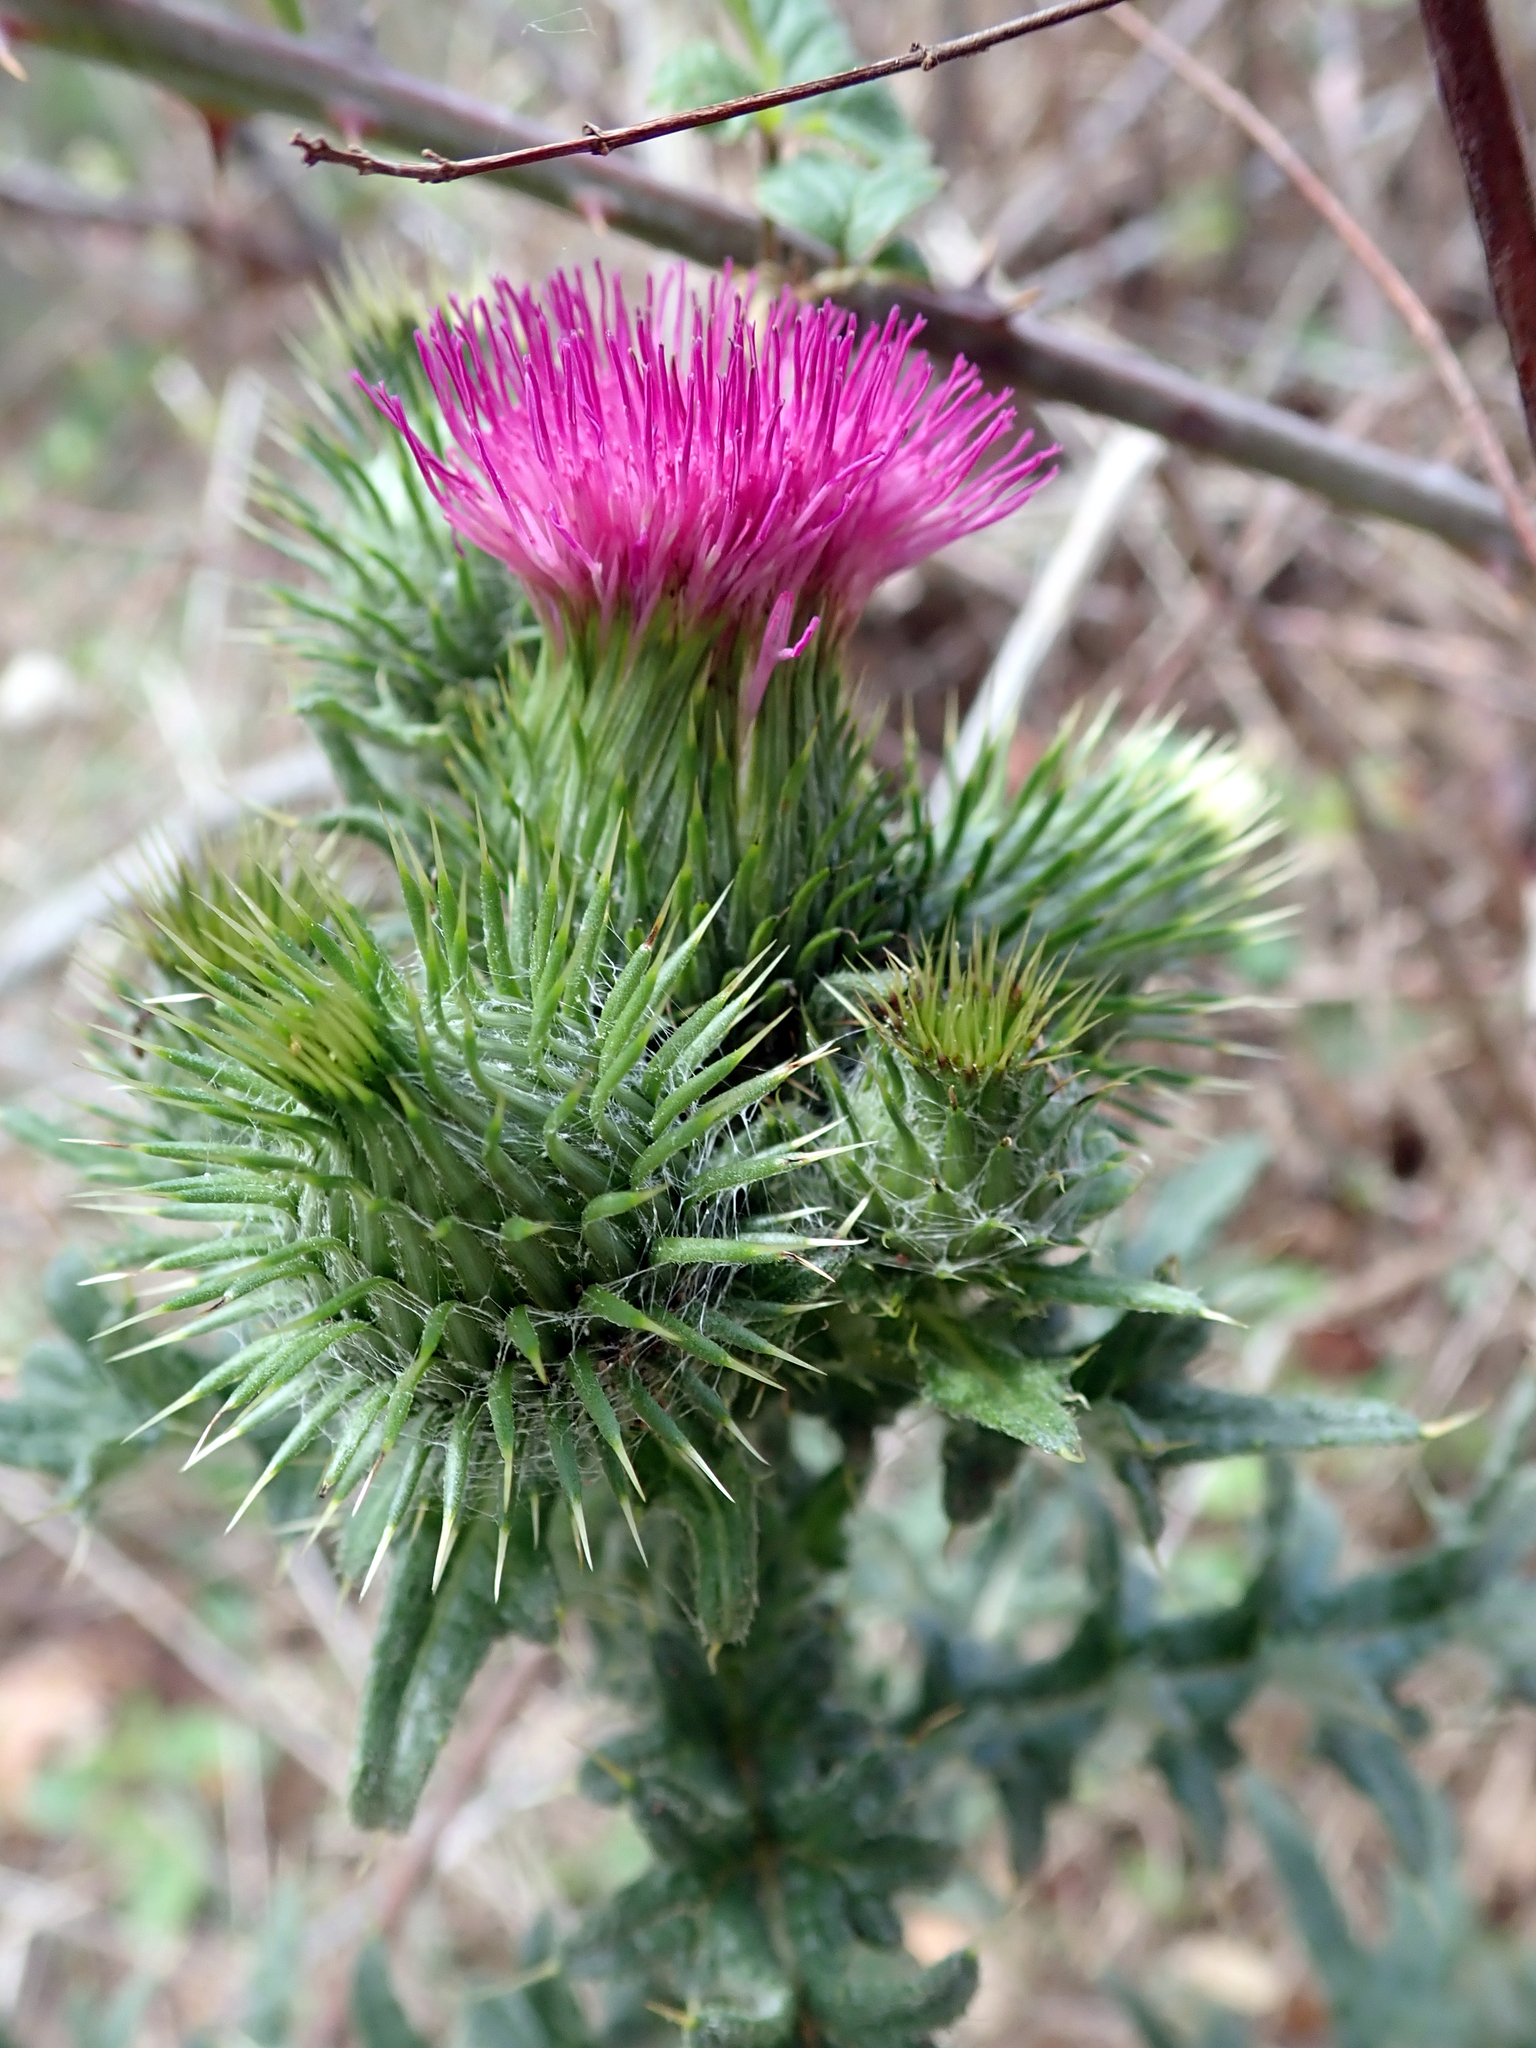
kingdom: Plantae
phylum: Tracheophyta
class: Magnoliopsida
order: Asterales
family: Asteraceae
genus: Cirsium
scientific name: Cirsium vulgare
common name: Bull thistle
